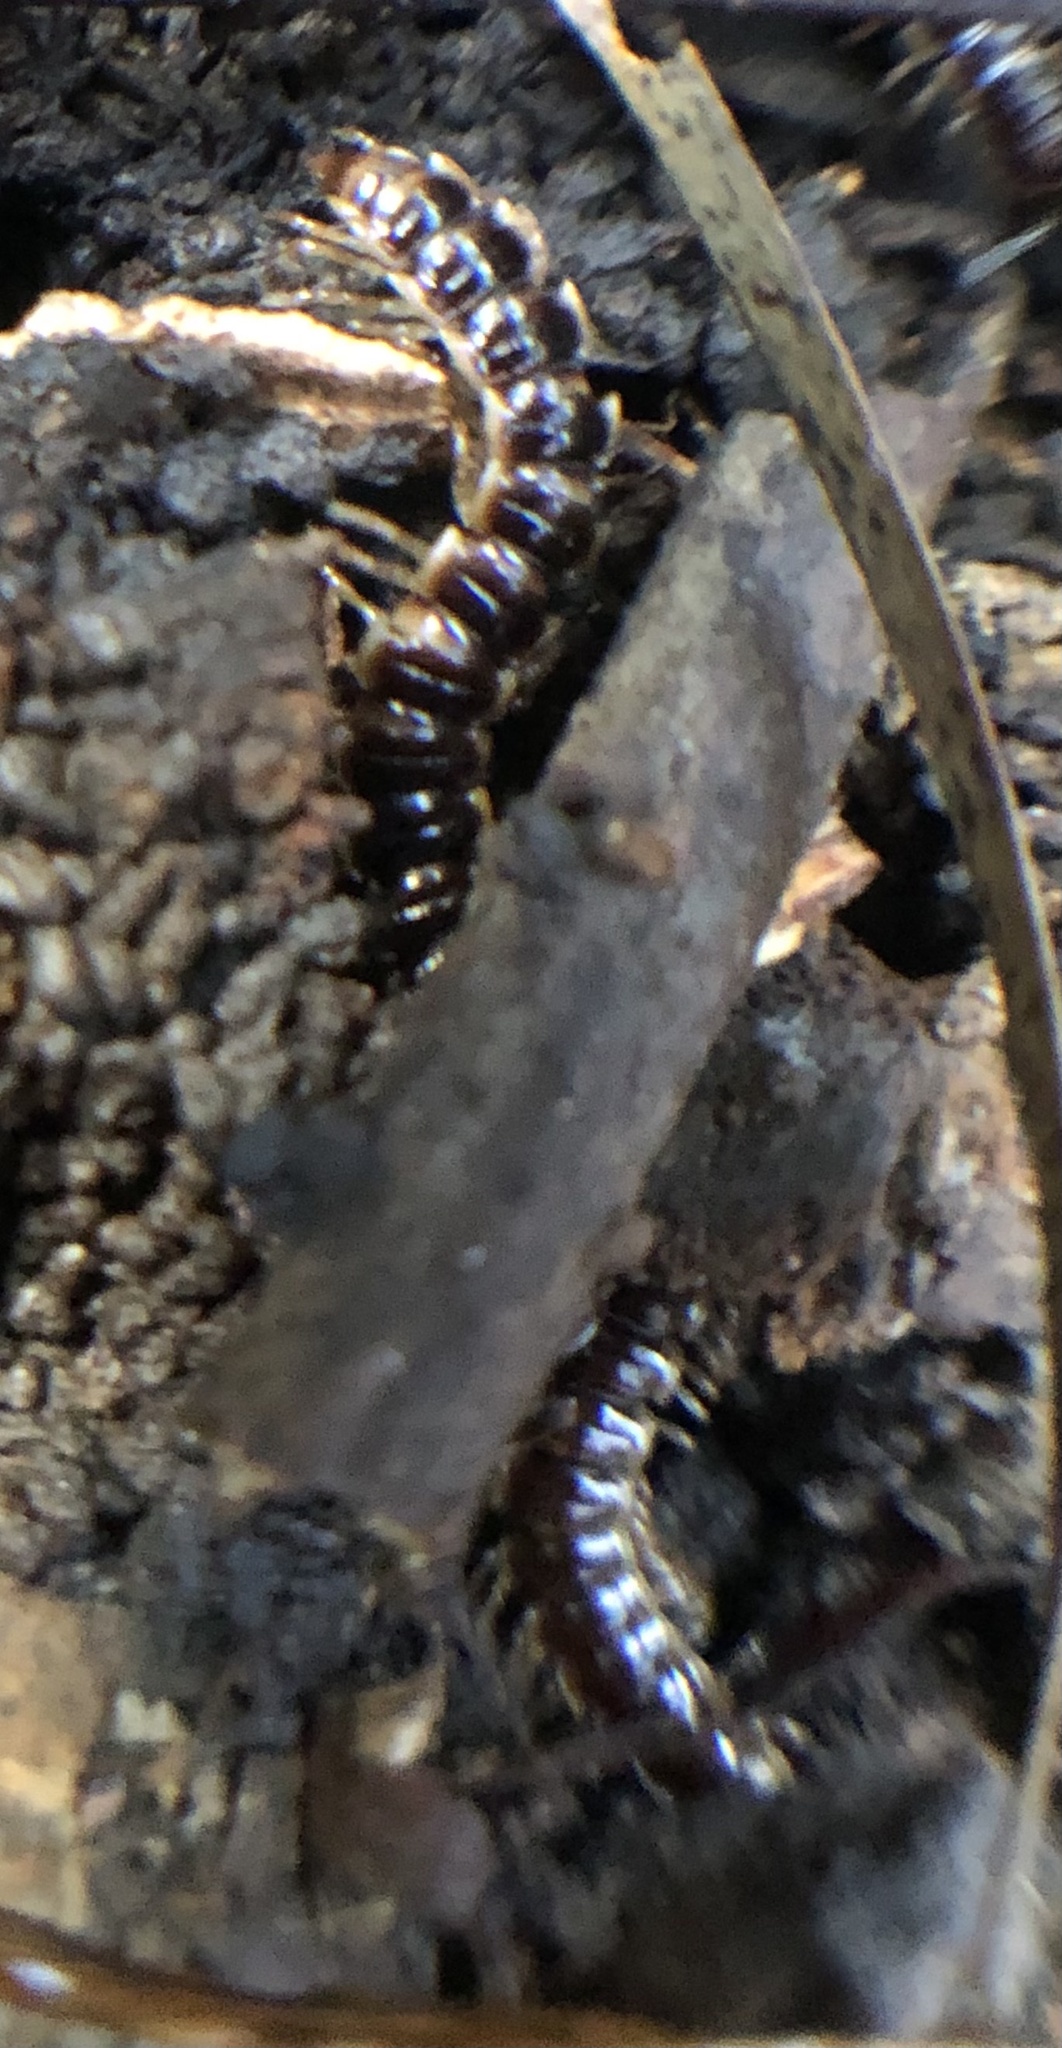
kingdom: Animalia
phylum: Arthropoda
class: Diplopoda
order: Polydesmida
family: Paradoxosomatidae
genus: Oxidus
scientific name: Oxidus gracilis
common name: Greenhouse millipede
